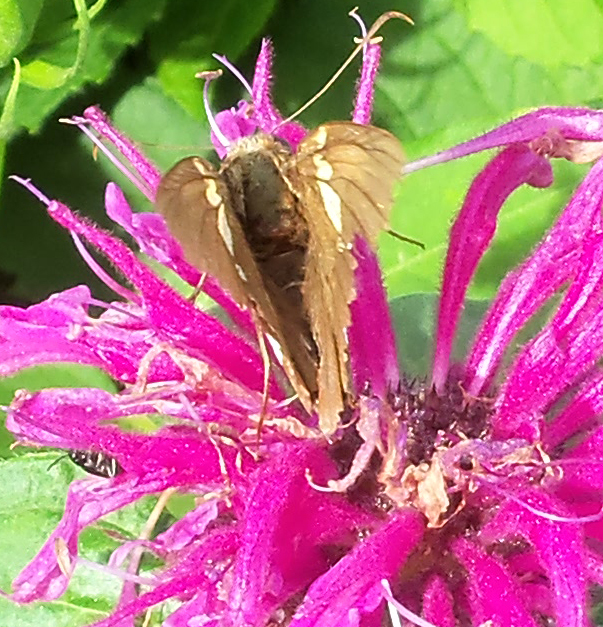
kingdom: Animalia
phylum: Arthropoda
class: Insecta
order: Lepidoptera
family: Hesperiidae
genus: Epargyreus
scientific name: Epargyreus clarus
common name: Silver-spotted skipper
